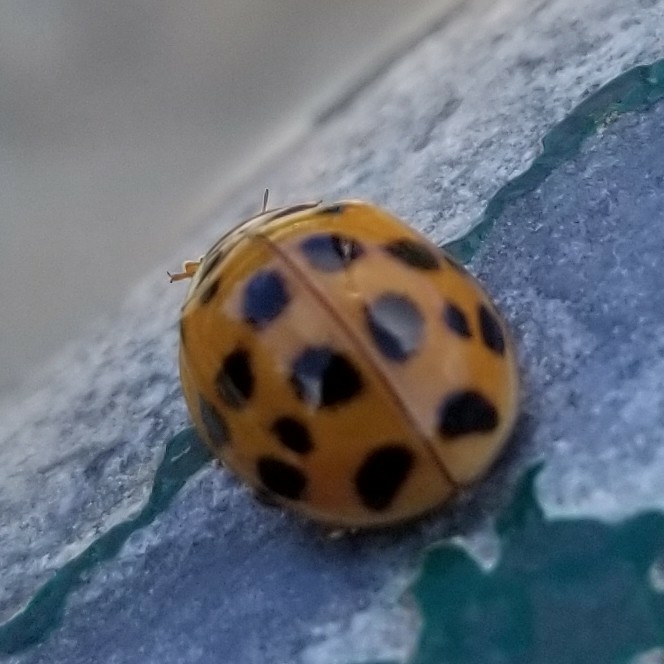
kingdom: Animalia
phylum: Arthropoda
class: Insecta
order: Coleoptera
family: Coccinellidae
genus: Harmonia
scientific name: Harmonia axyridis
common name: Harlequin ladybird
